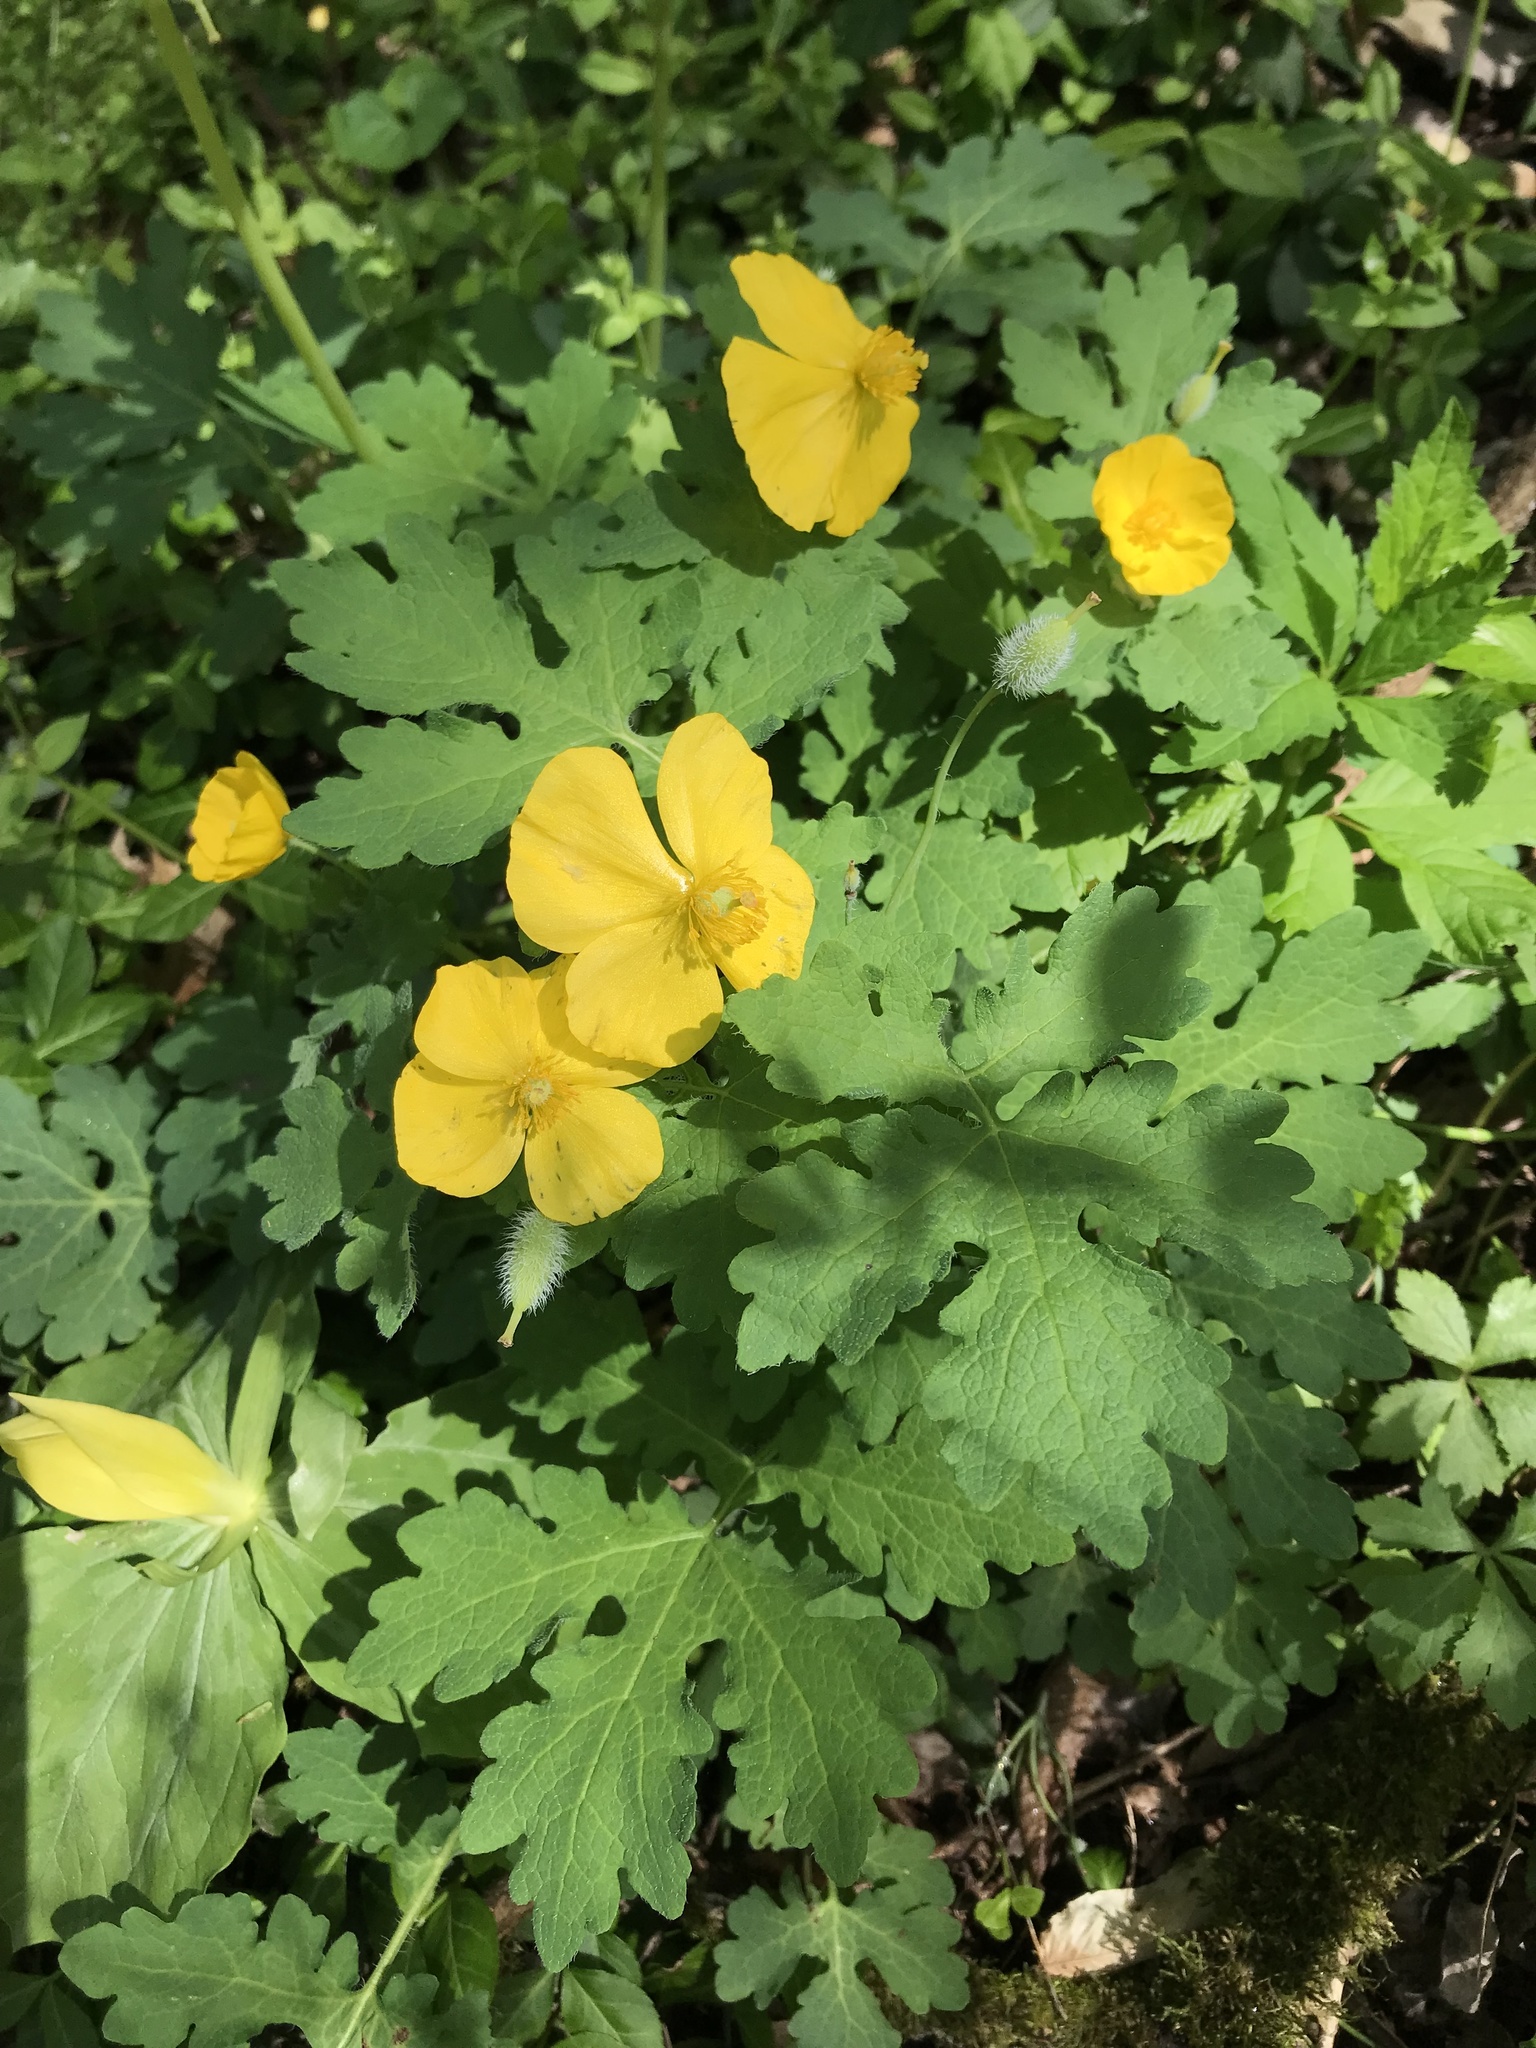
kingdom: Plantae
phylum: Tracheophyta
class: Magnoliopsida
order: Ranunculales
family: Papaveraceae
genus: Stylophorum
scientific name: Stylophorum diphyllum
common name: Celandine poppy
